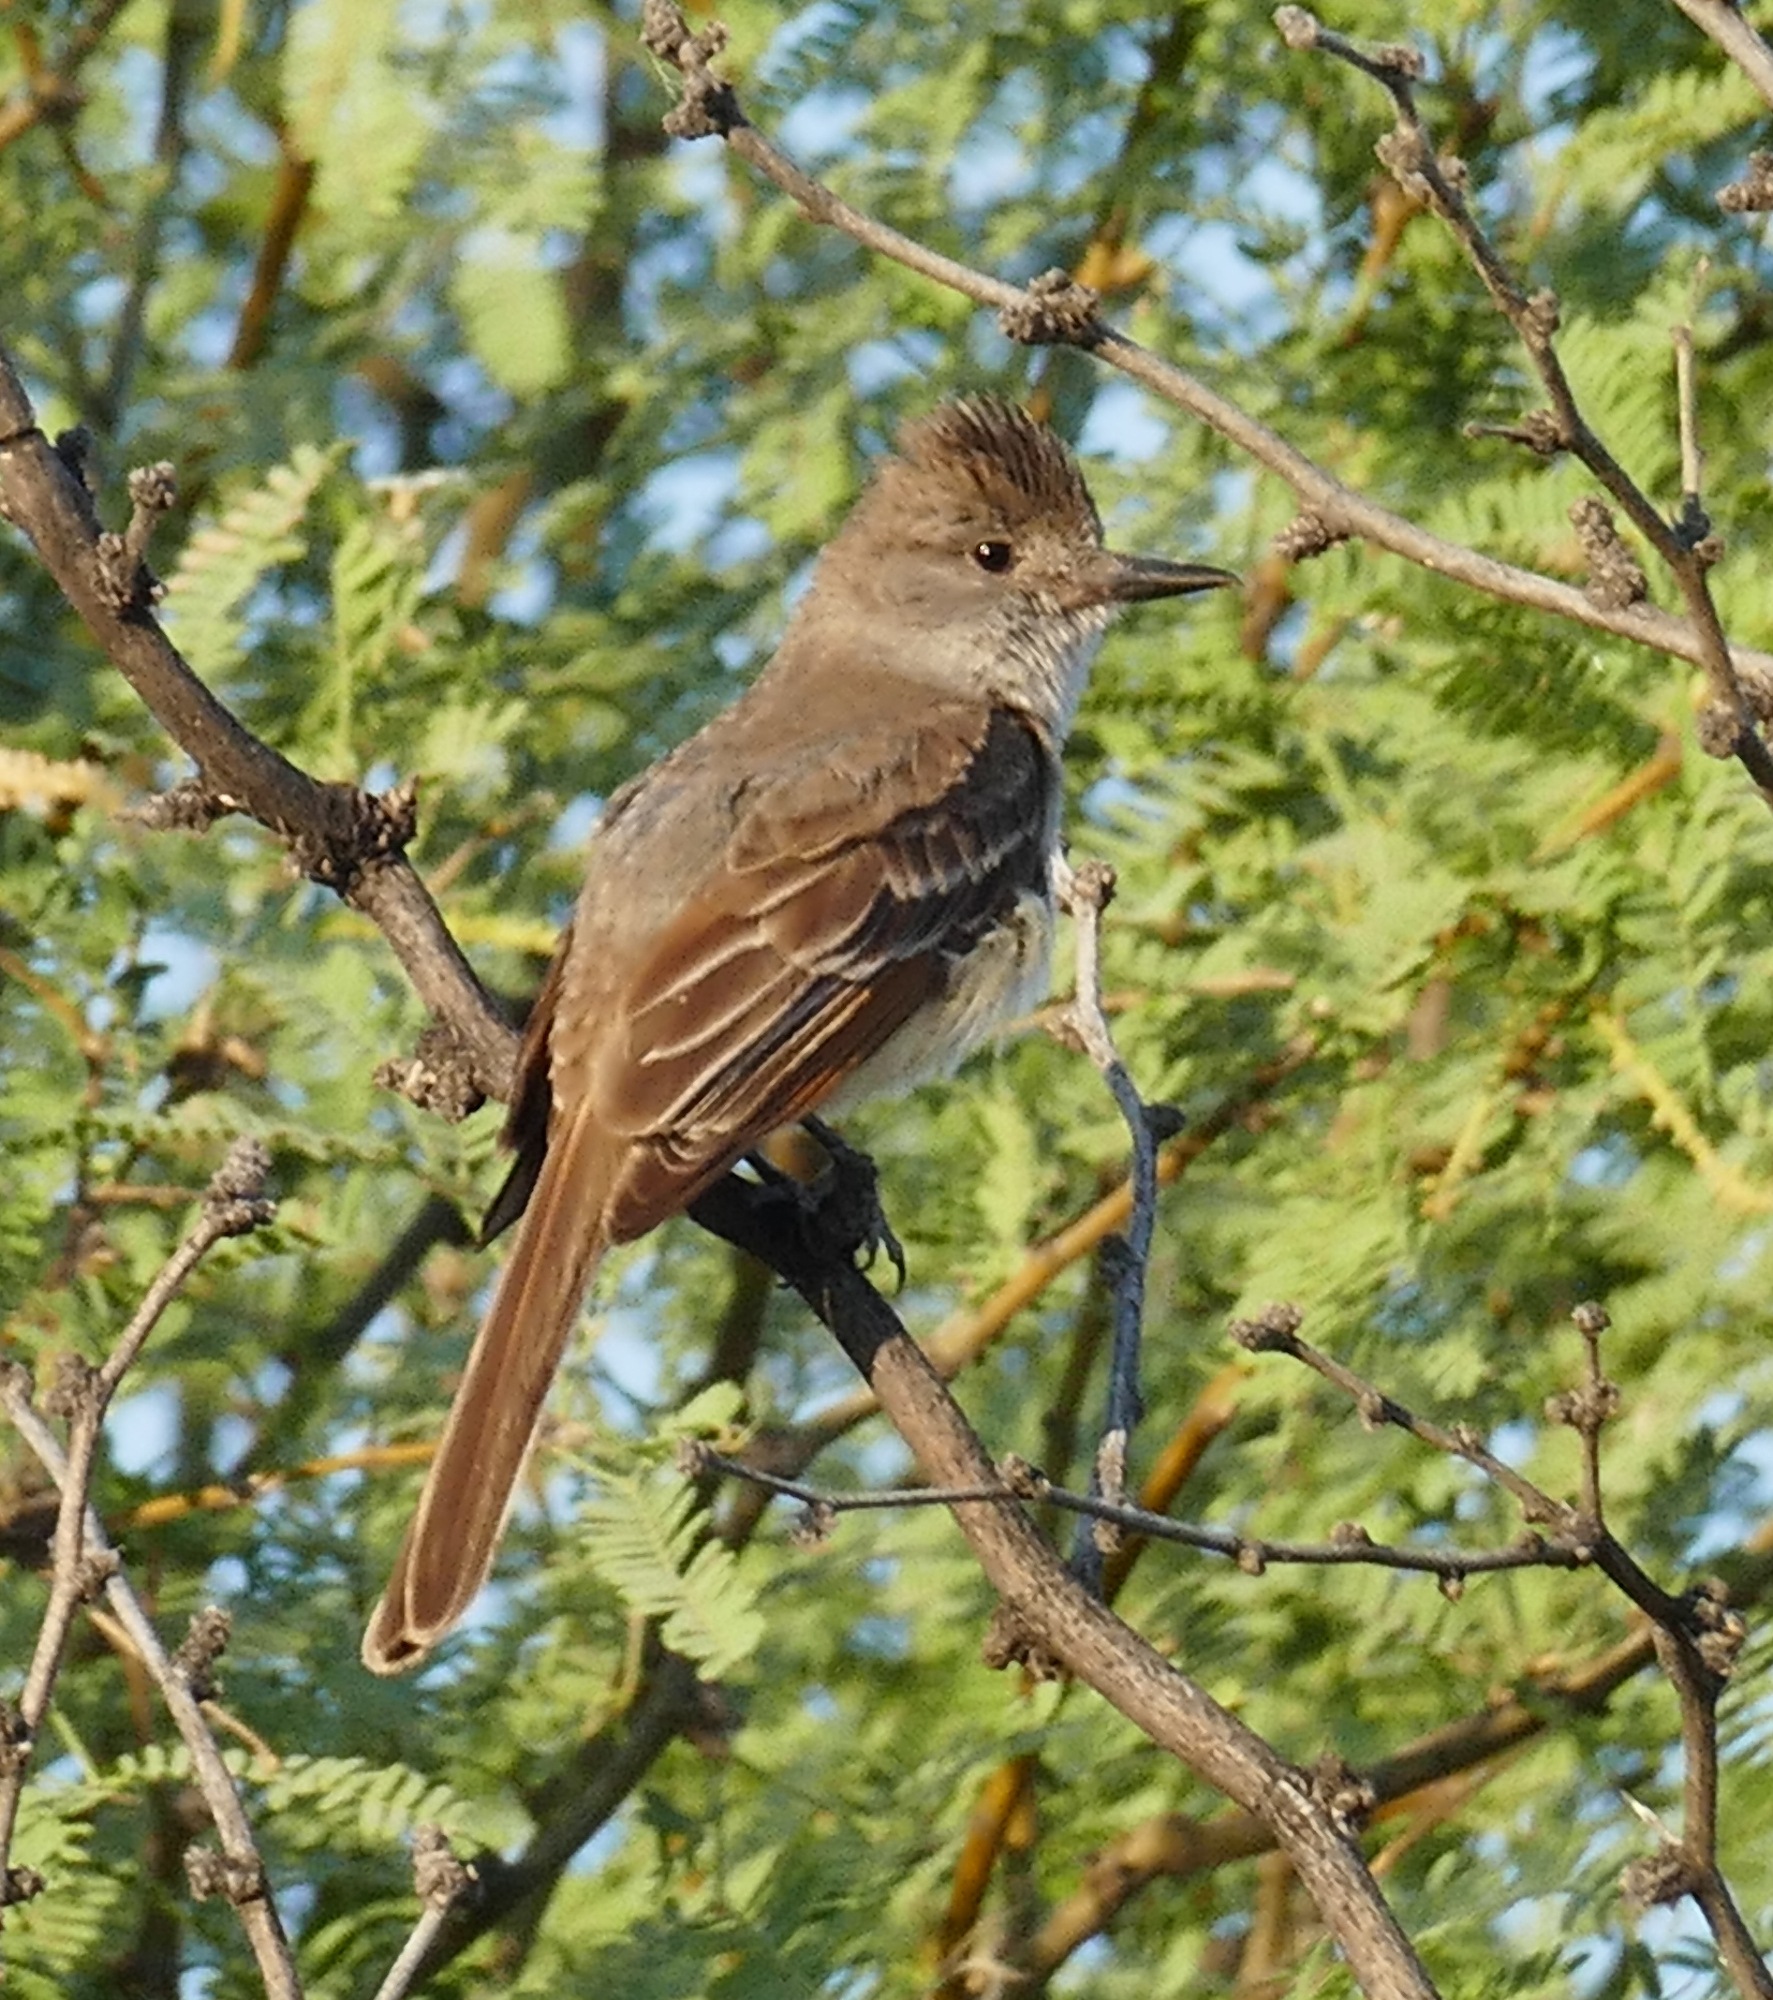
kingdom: Animalia
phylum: Chordata
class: Aves
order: Passeriformes
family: Tyrannidae
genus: Myiarchus
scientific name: Myiarchus cinerascens
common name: Ash-throated flycatcher
